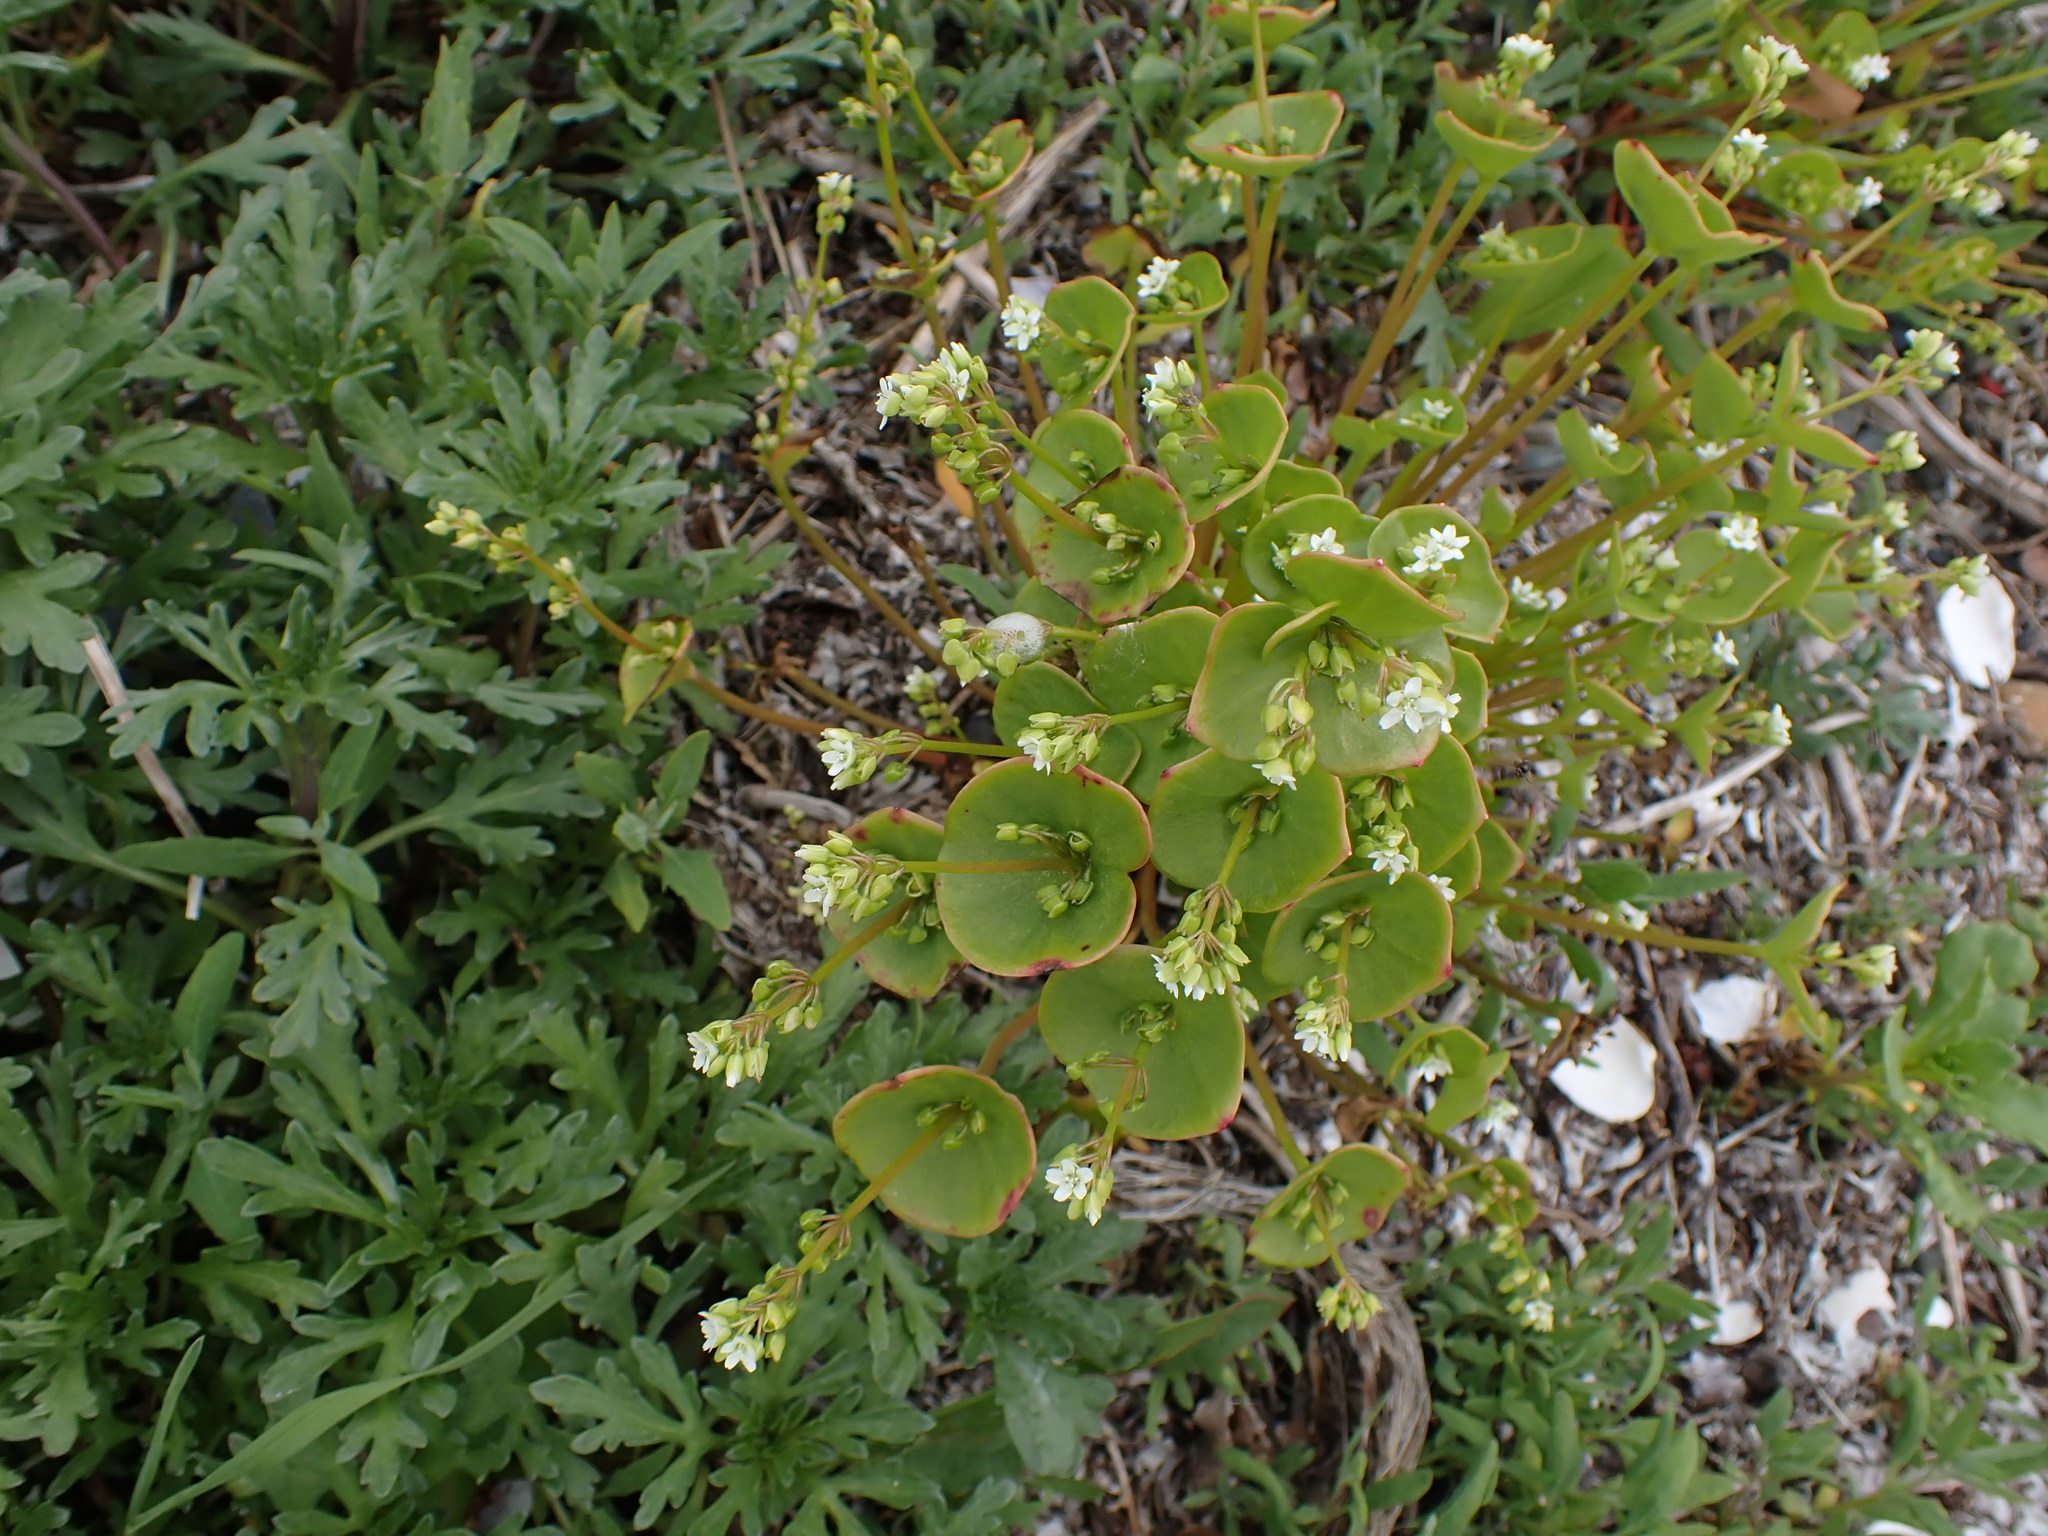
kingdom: Plantae
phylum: Tracheophyta
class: Magnoliopsida
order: Caryophyllales
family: Montiaceae
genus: Claytonia
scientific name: Claytonia perfoliata
